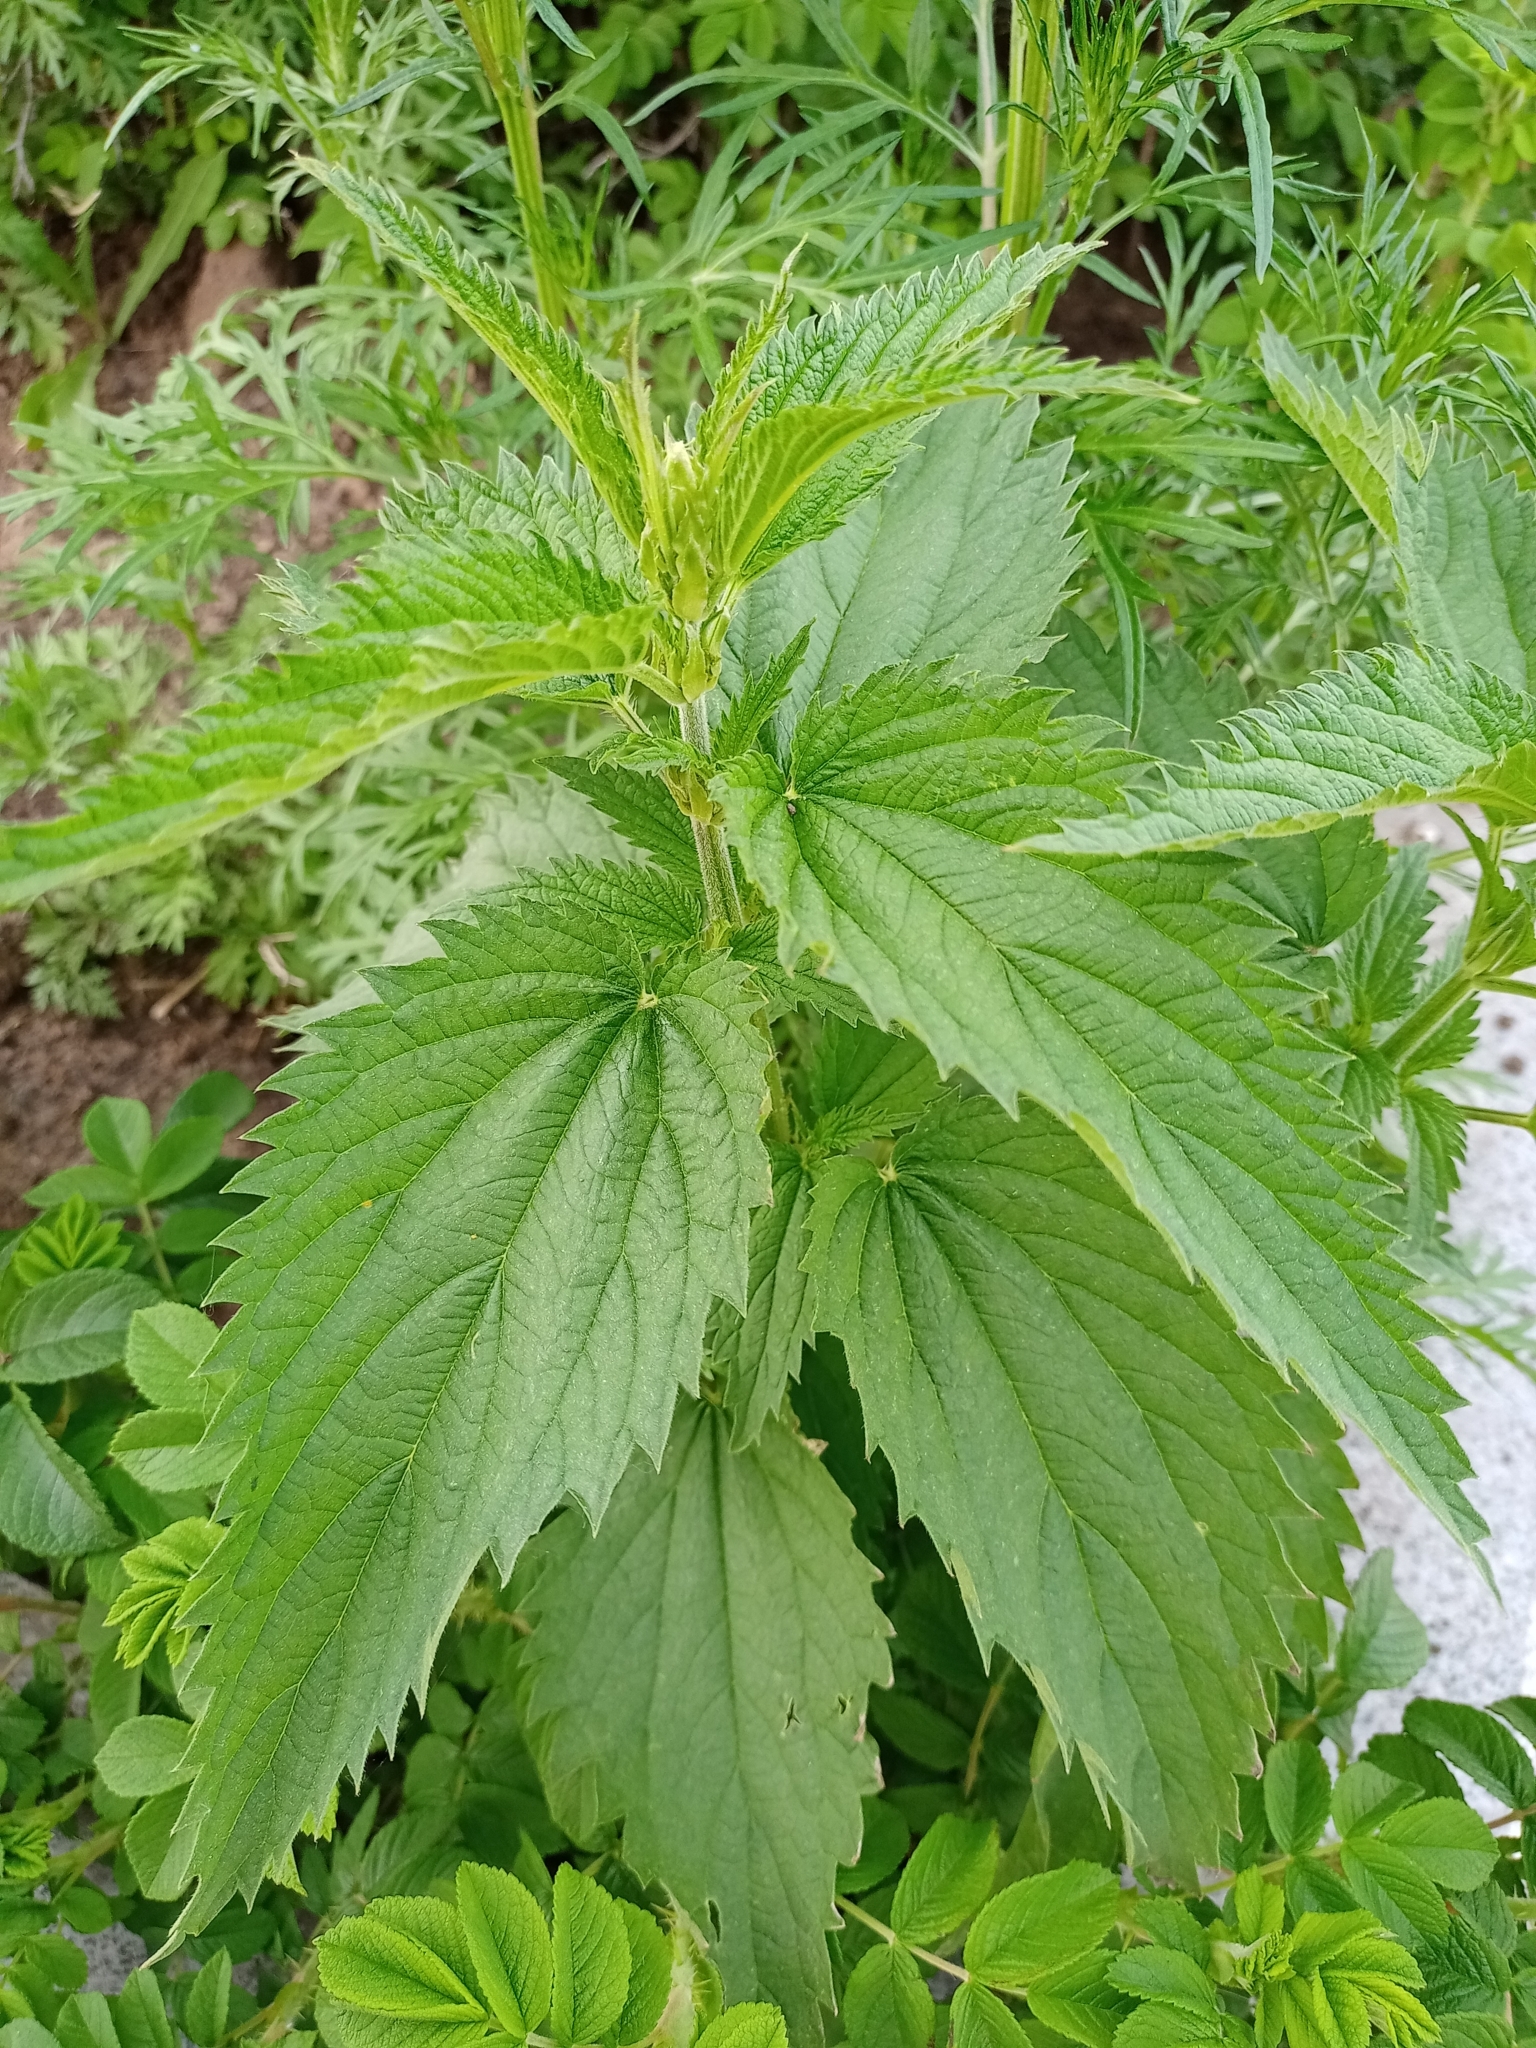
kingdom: Plantae
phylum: Tracheophyta
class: Magnoliopsida
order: Rosales
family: Urticaceae
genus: Urtica
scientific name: Urtica dioica
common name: Common nettle
